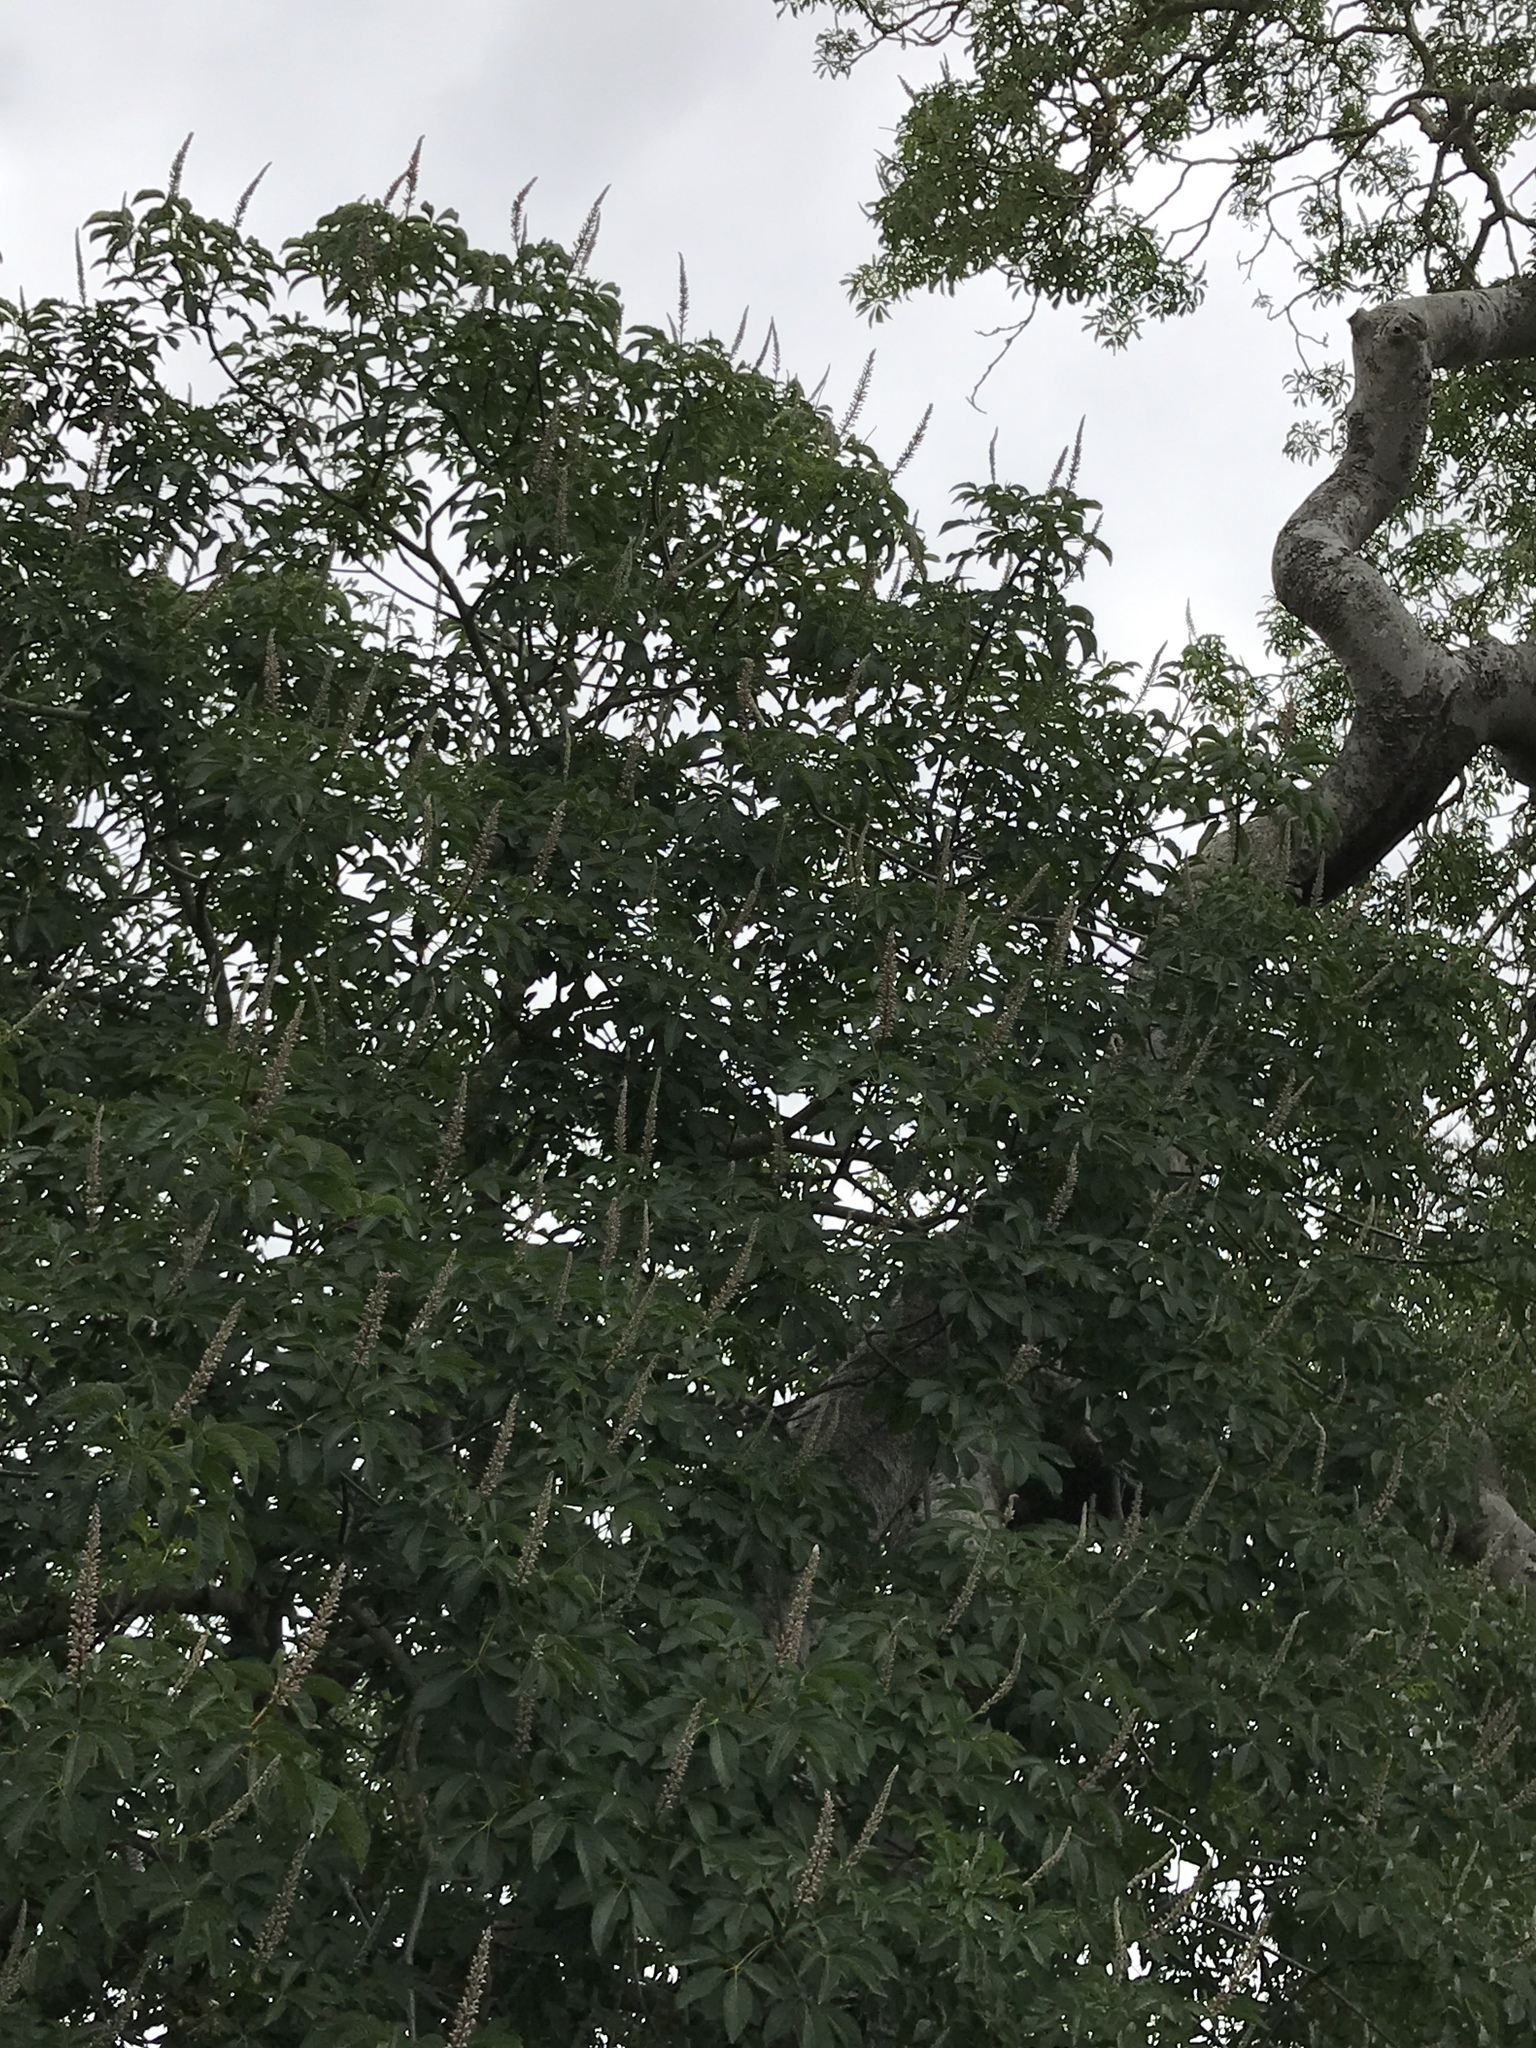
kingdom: Plantae
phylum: Tracheophyta
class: Magnoliopsida
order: Sapindales
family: Sapindaceae
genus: Aesculus
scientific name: Aesculus californica
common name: California buckeye
